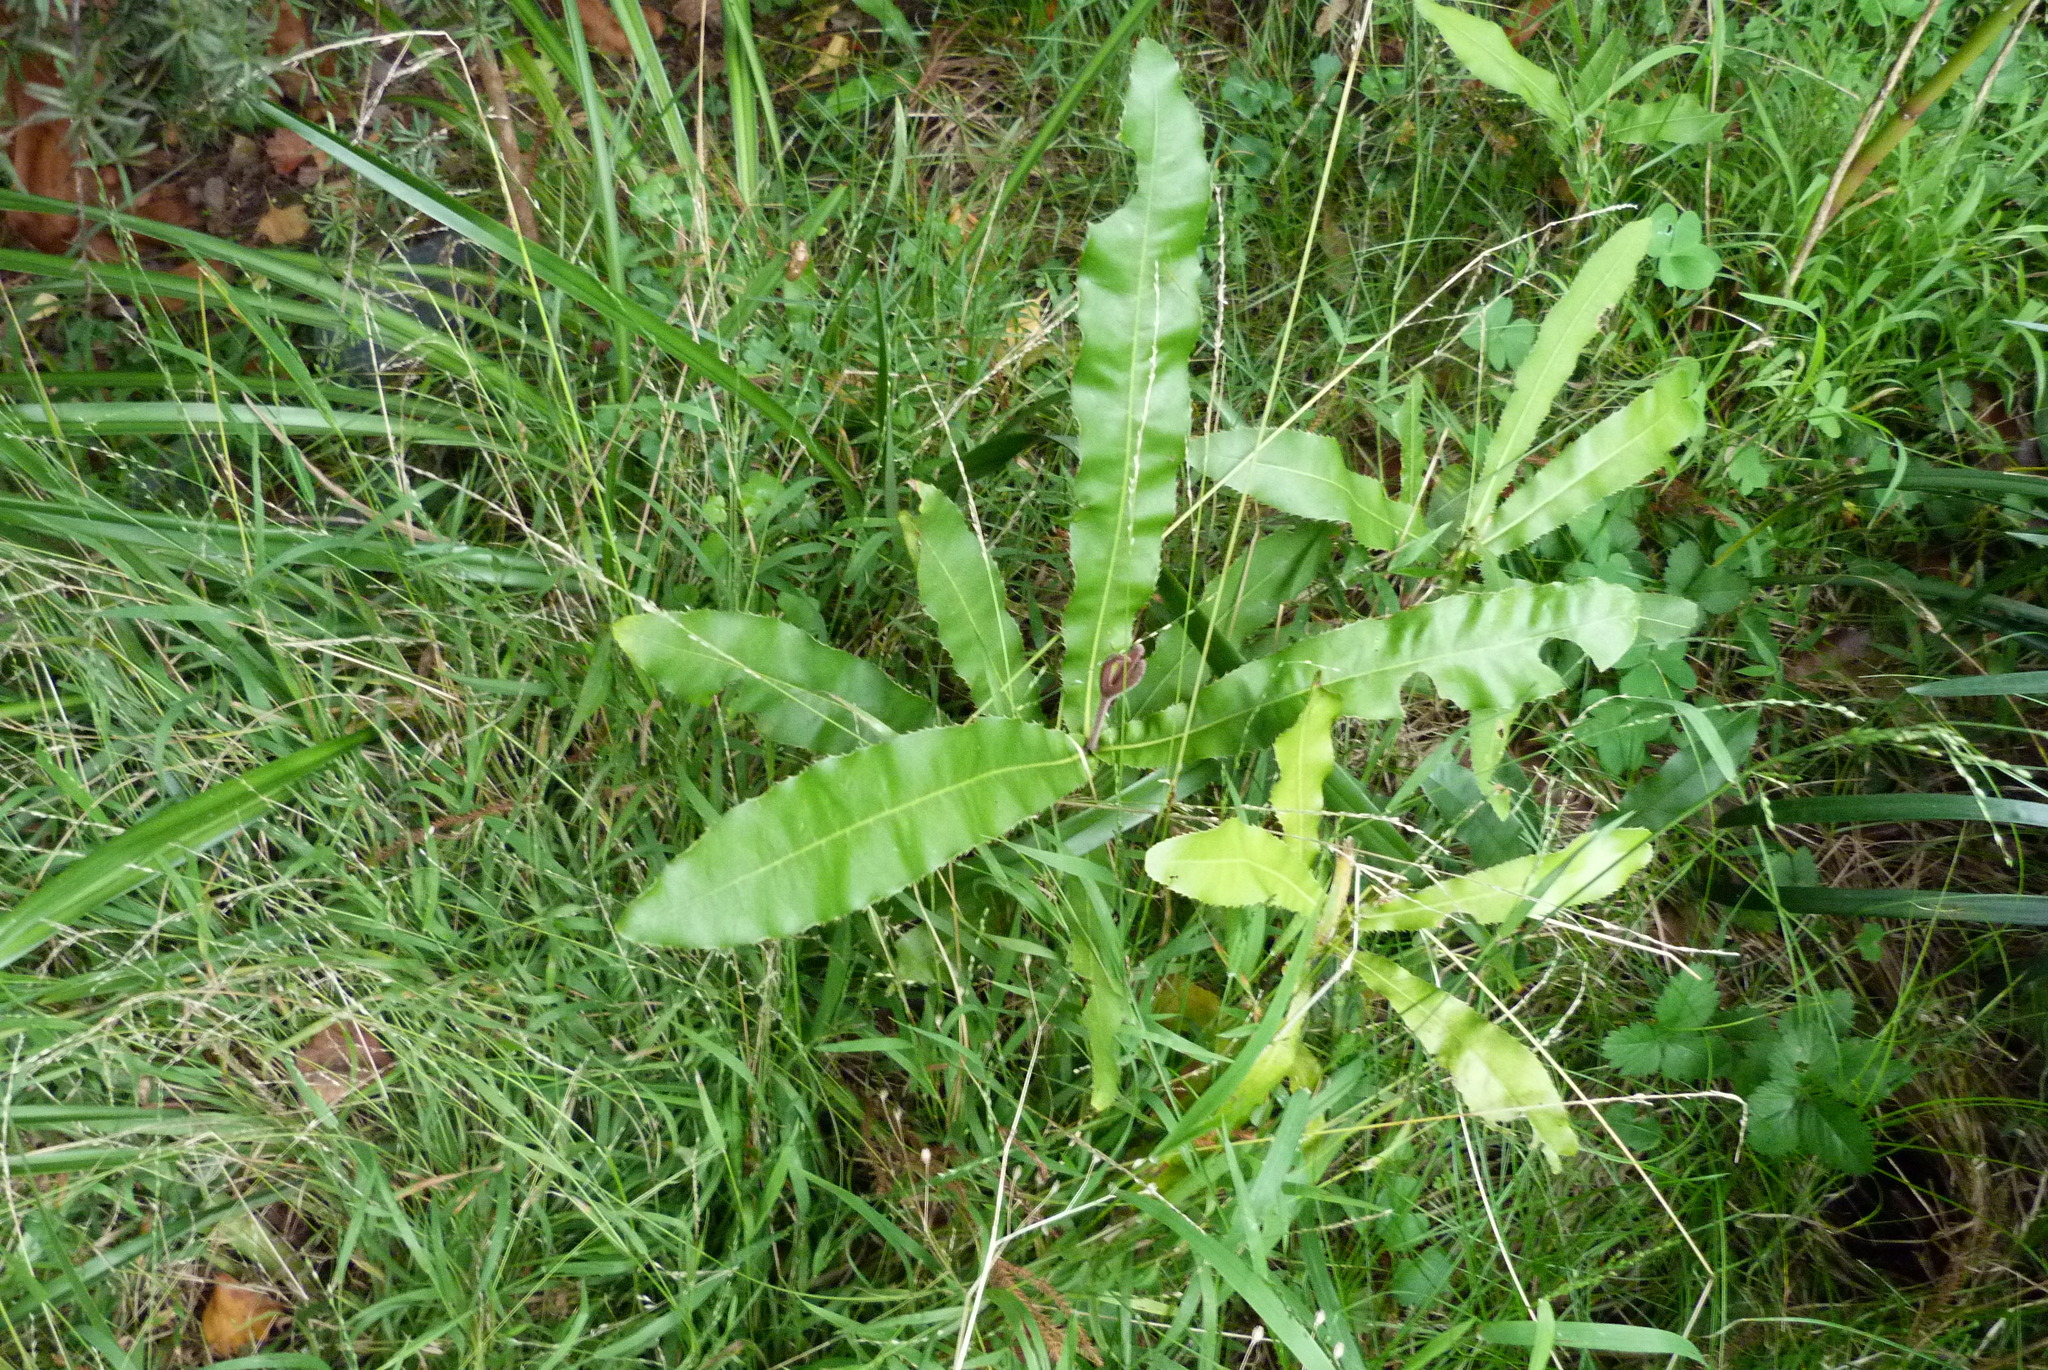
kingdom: Plantae
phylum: Tracheophyta
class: Magnoliopsida
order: Proteales
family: Proteaceae
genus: Macadamia
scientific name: Macadamia tetraphylla
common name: Macadamia nut
